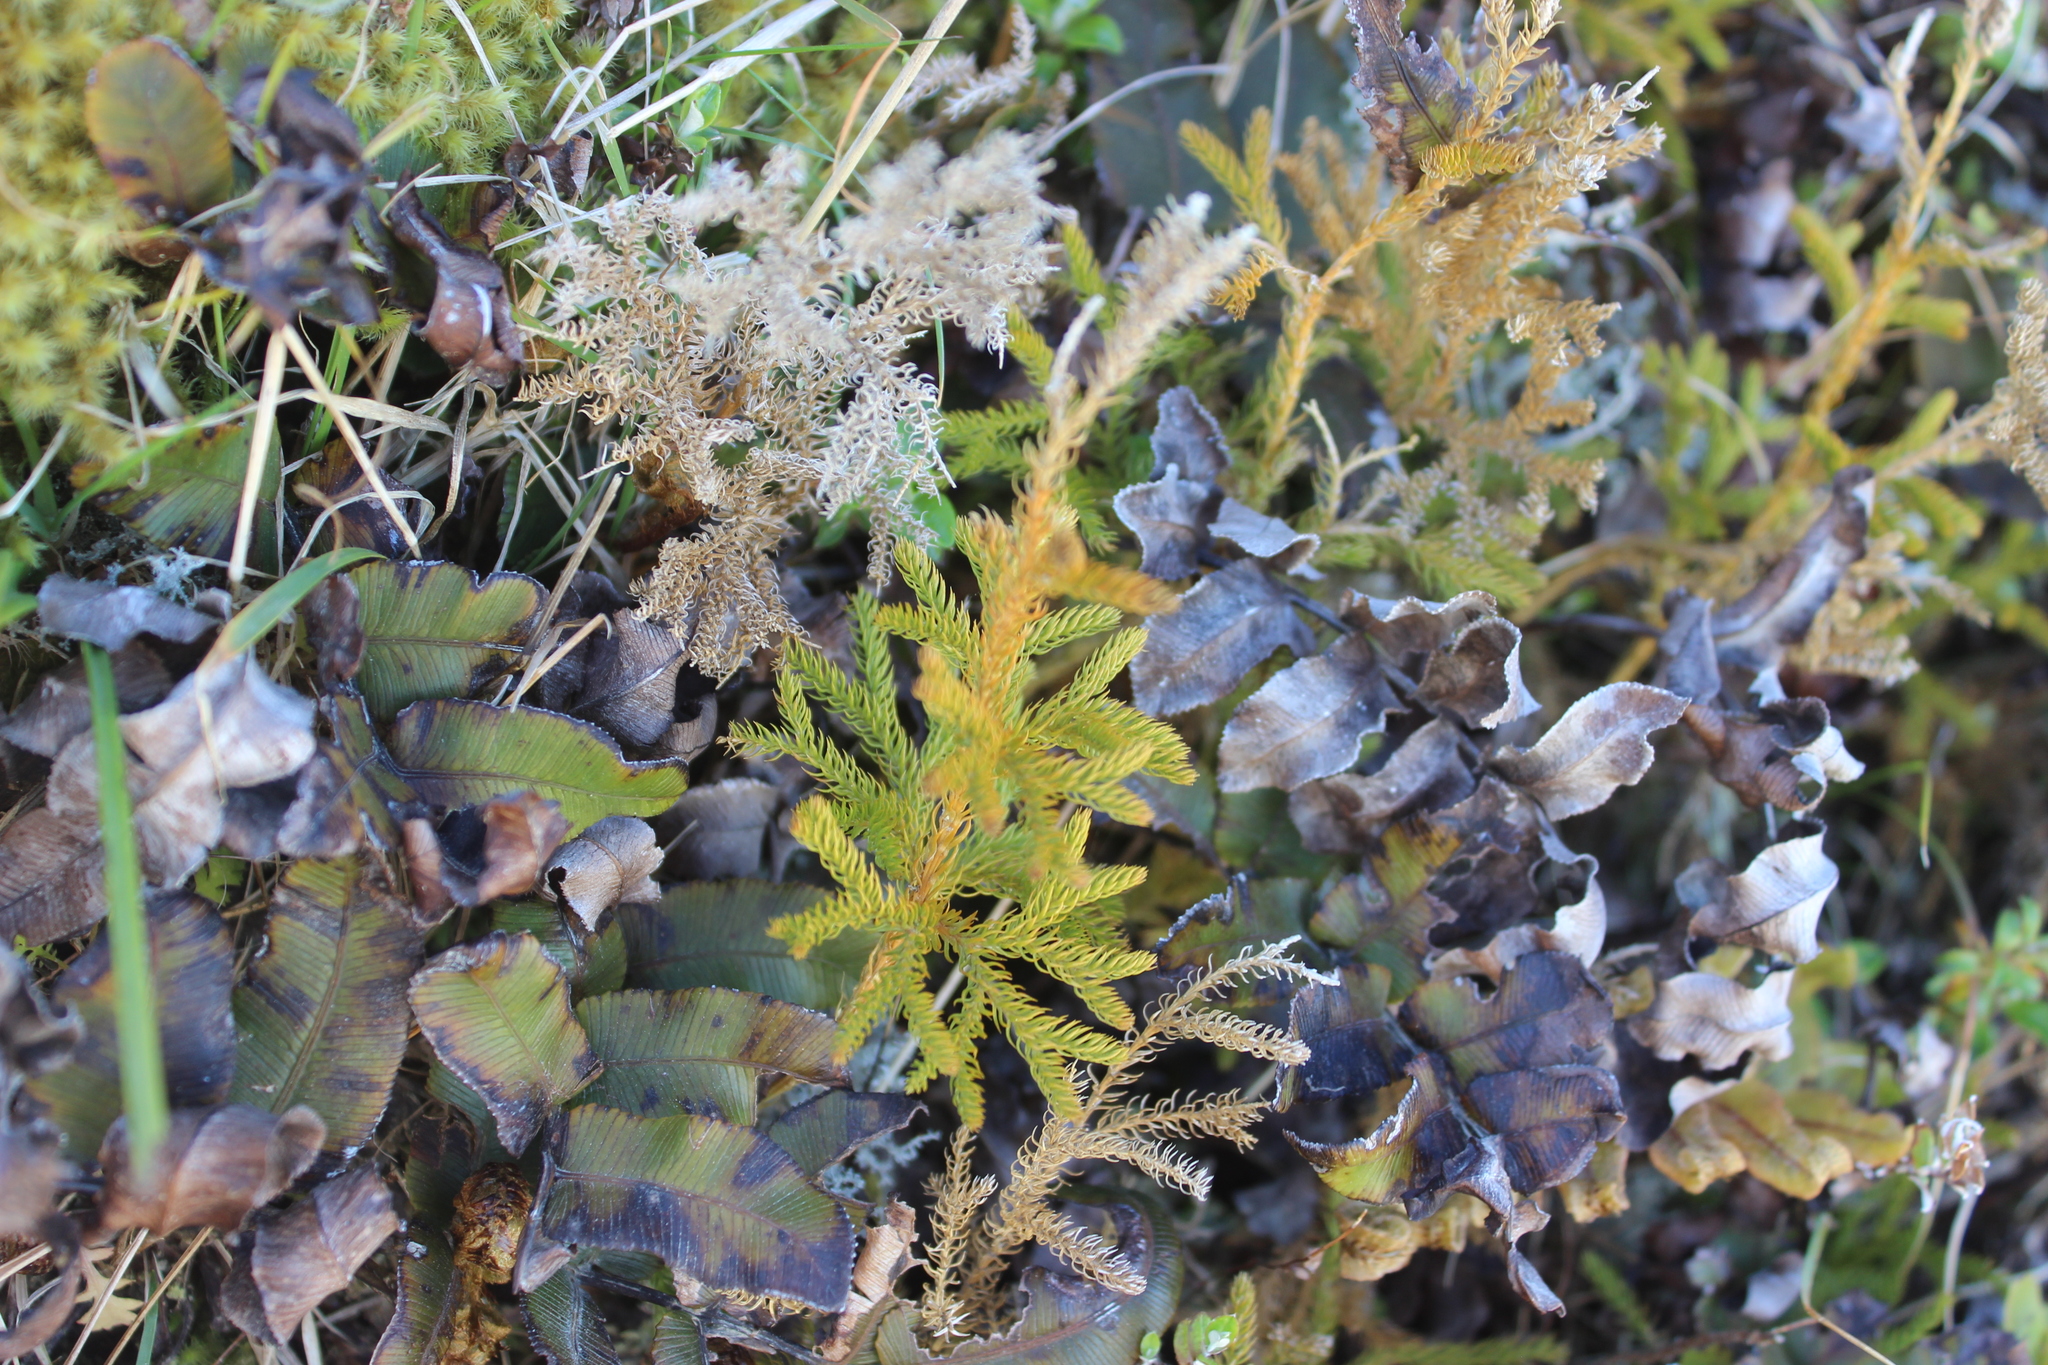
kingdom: Plantae
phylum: Tracheophyta
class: Lycopodiopsida
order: Lycopodiales
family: Lycopodiaceae
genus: Austrolycopodium
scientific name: Austrolycopodium fastigiatum
